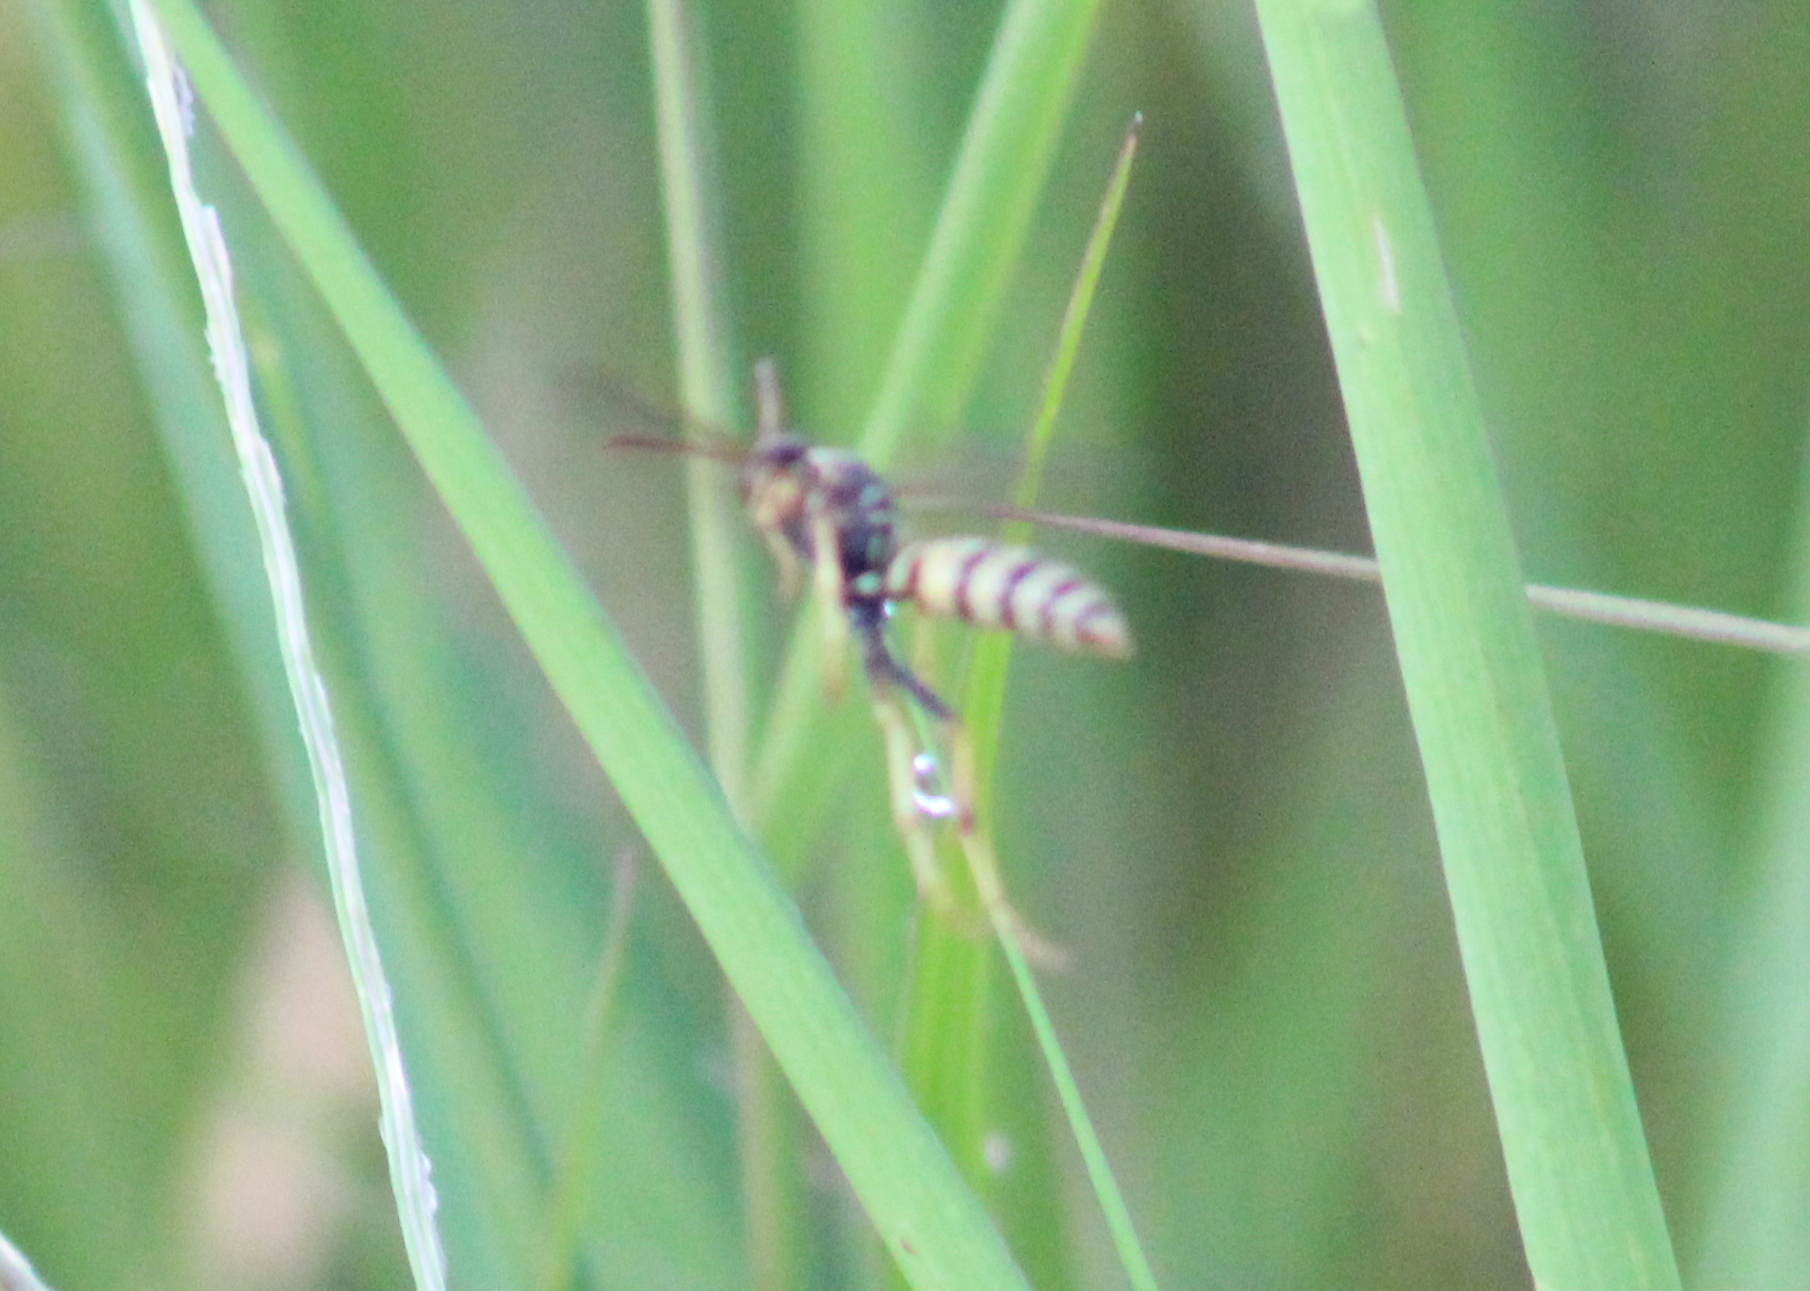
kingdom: Animalia
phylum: Arthropoda
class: Insecta
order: Hymenoptera
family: Eumenidae
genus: Polistes
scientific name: Polistes aurifer
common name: Paper wasp
